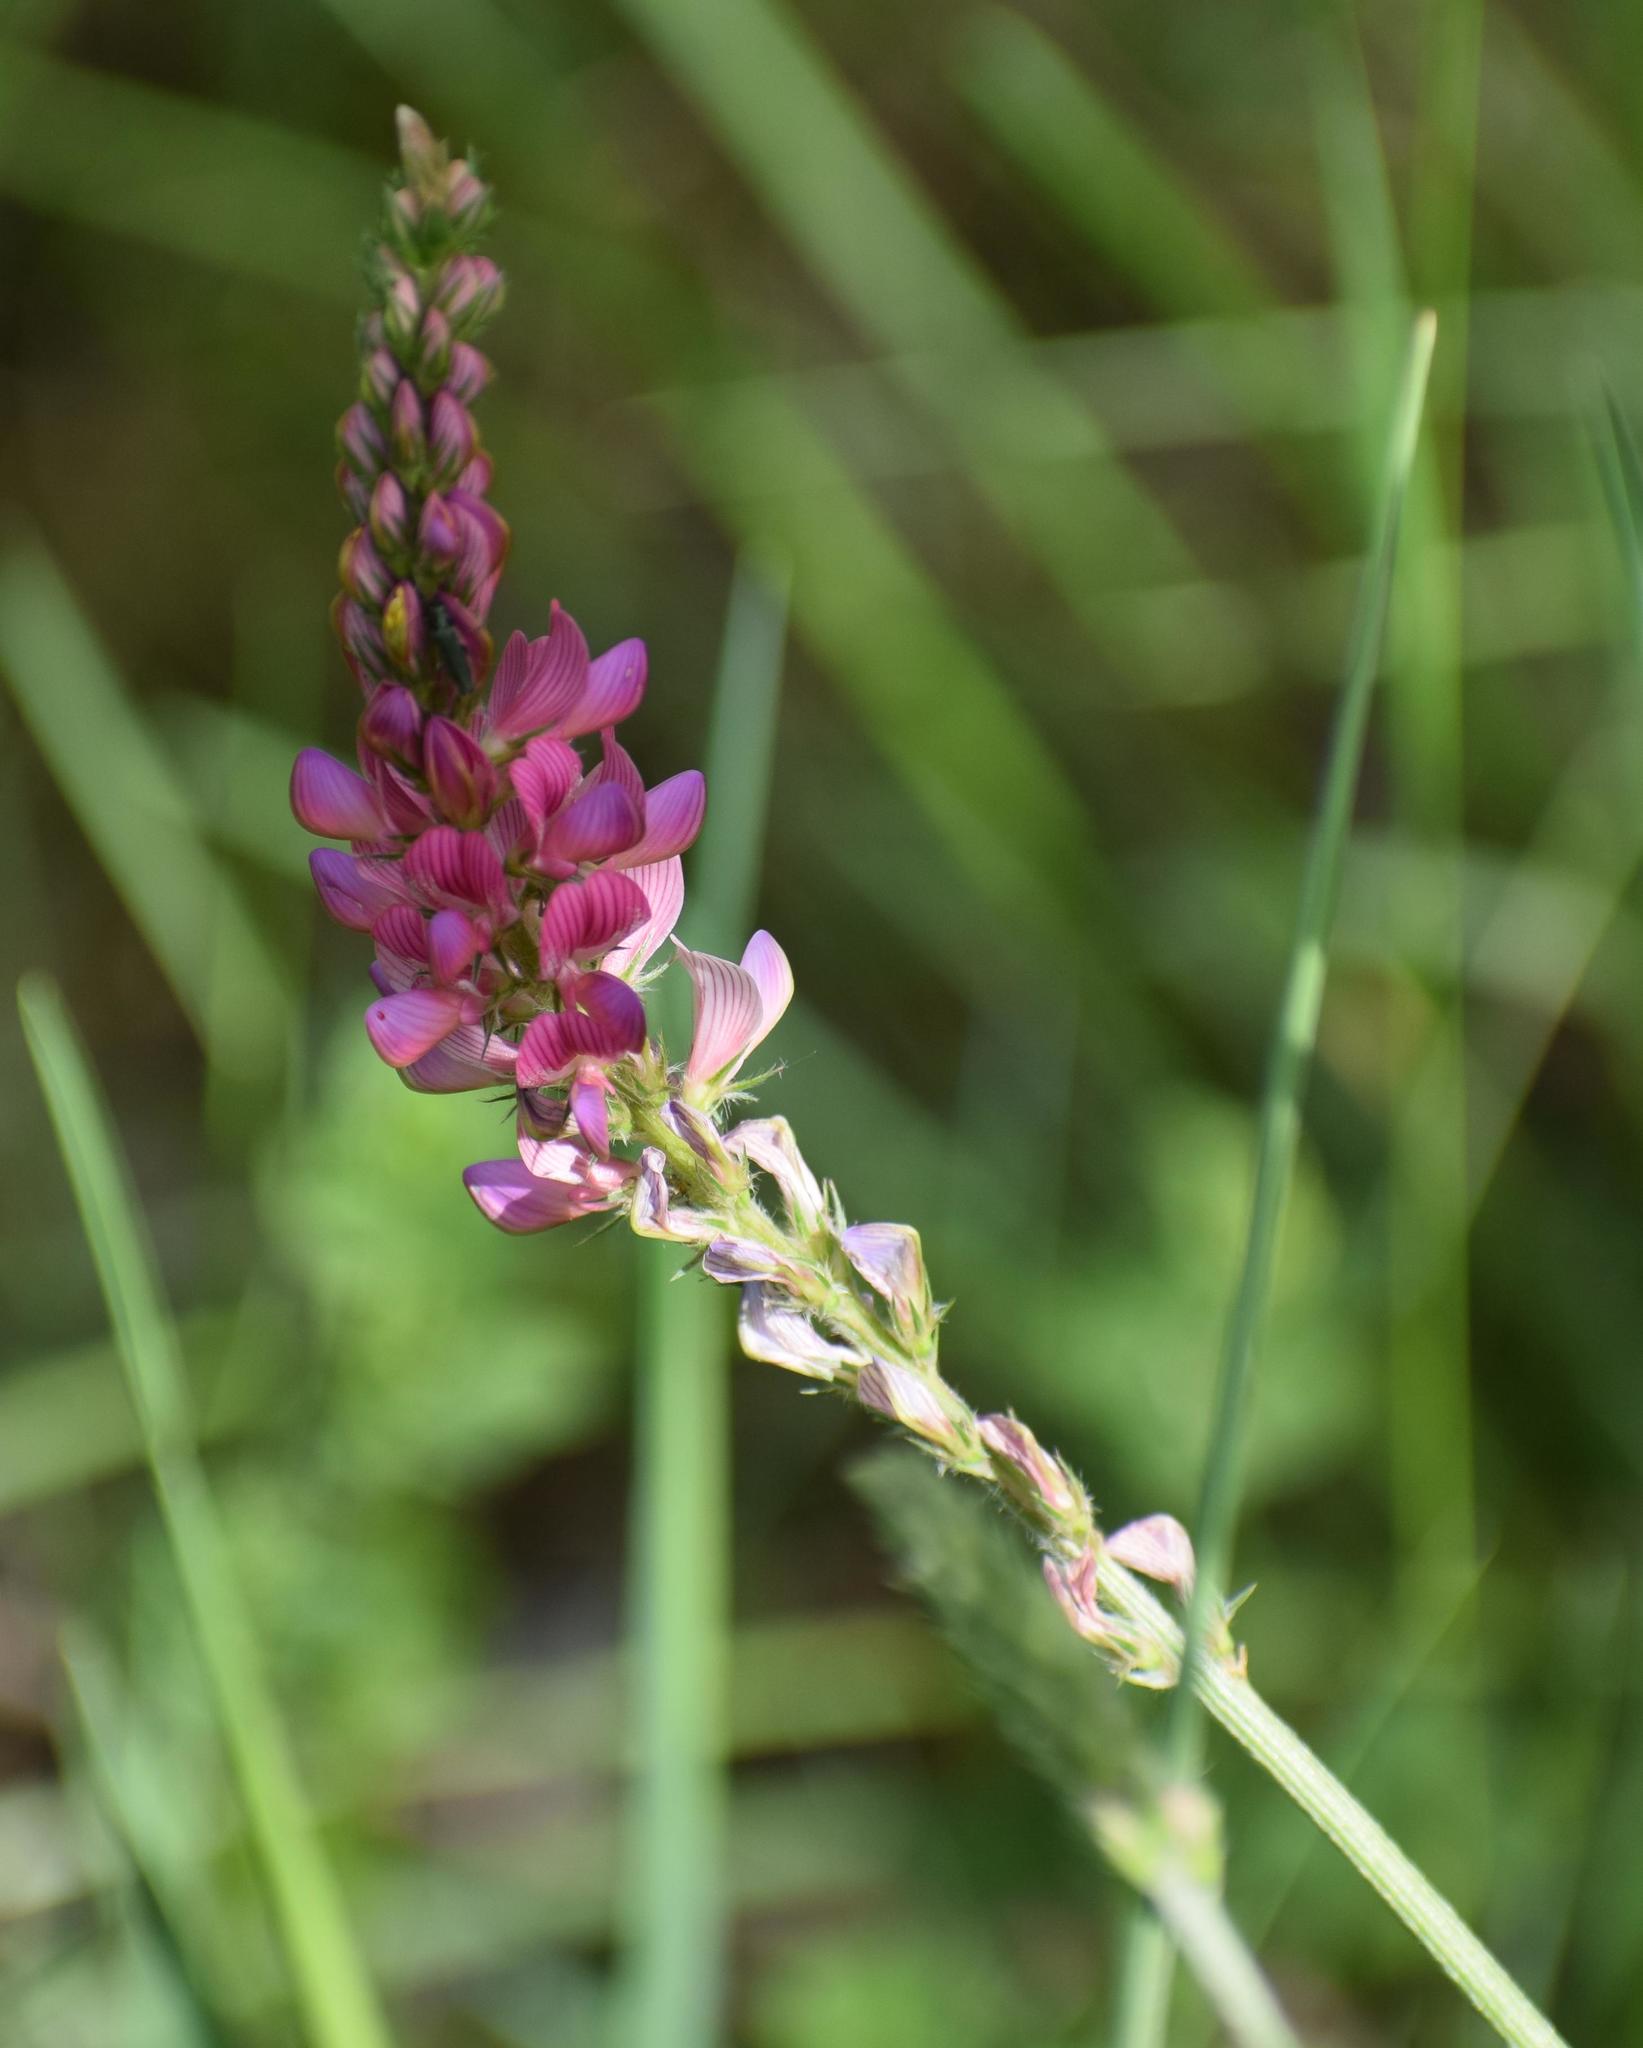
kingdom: Plantae
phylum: Tracheophyta
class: Magnoliopsida
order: Fabales
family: Fabaceae
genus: Onobrychis
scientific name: Onobrychis viciifolia
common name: Sainfoin
